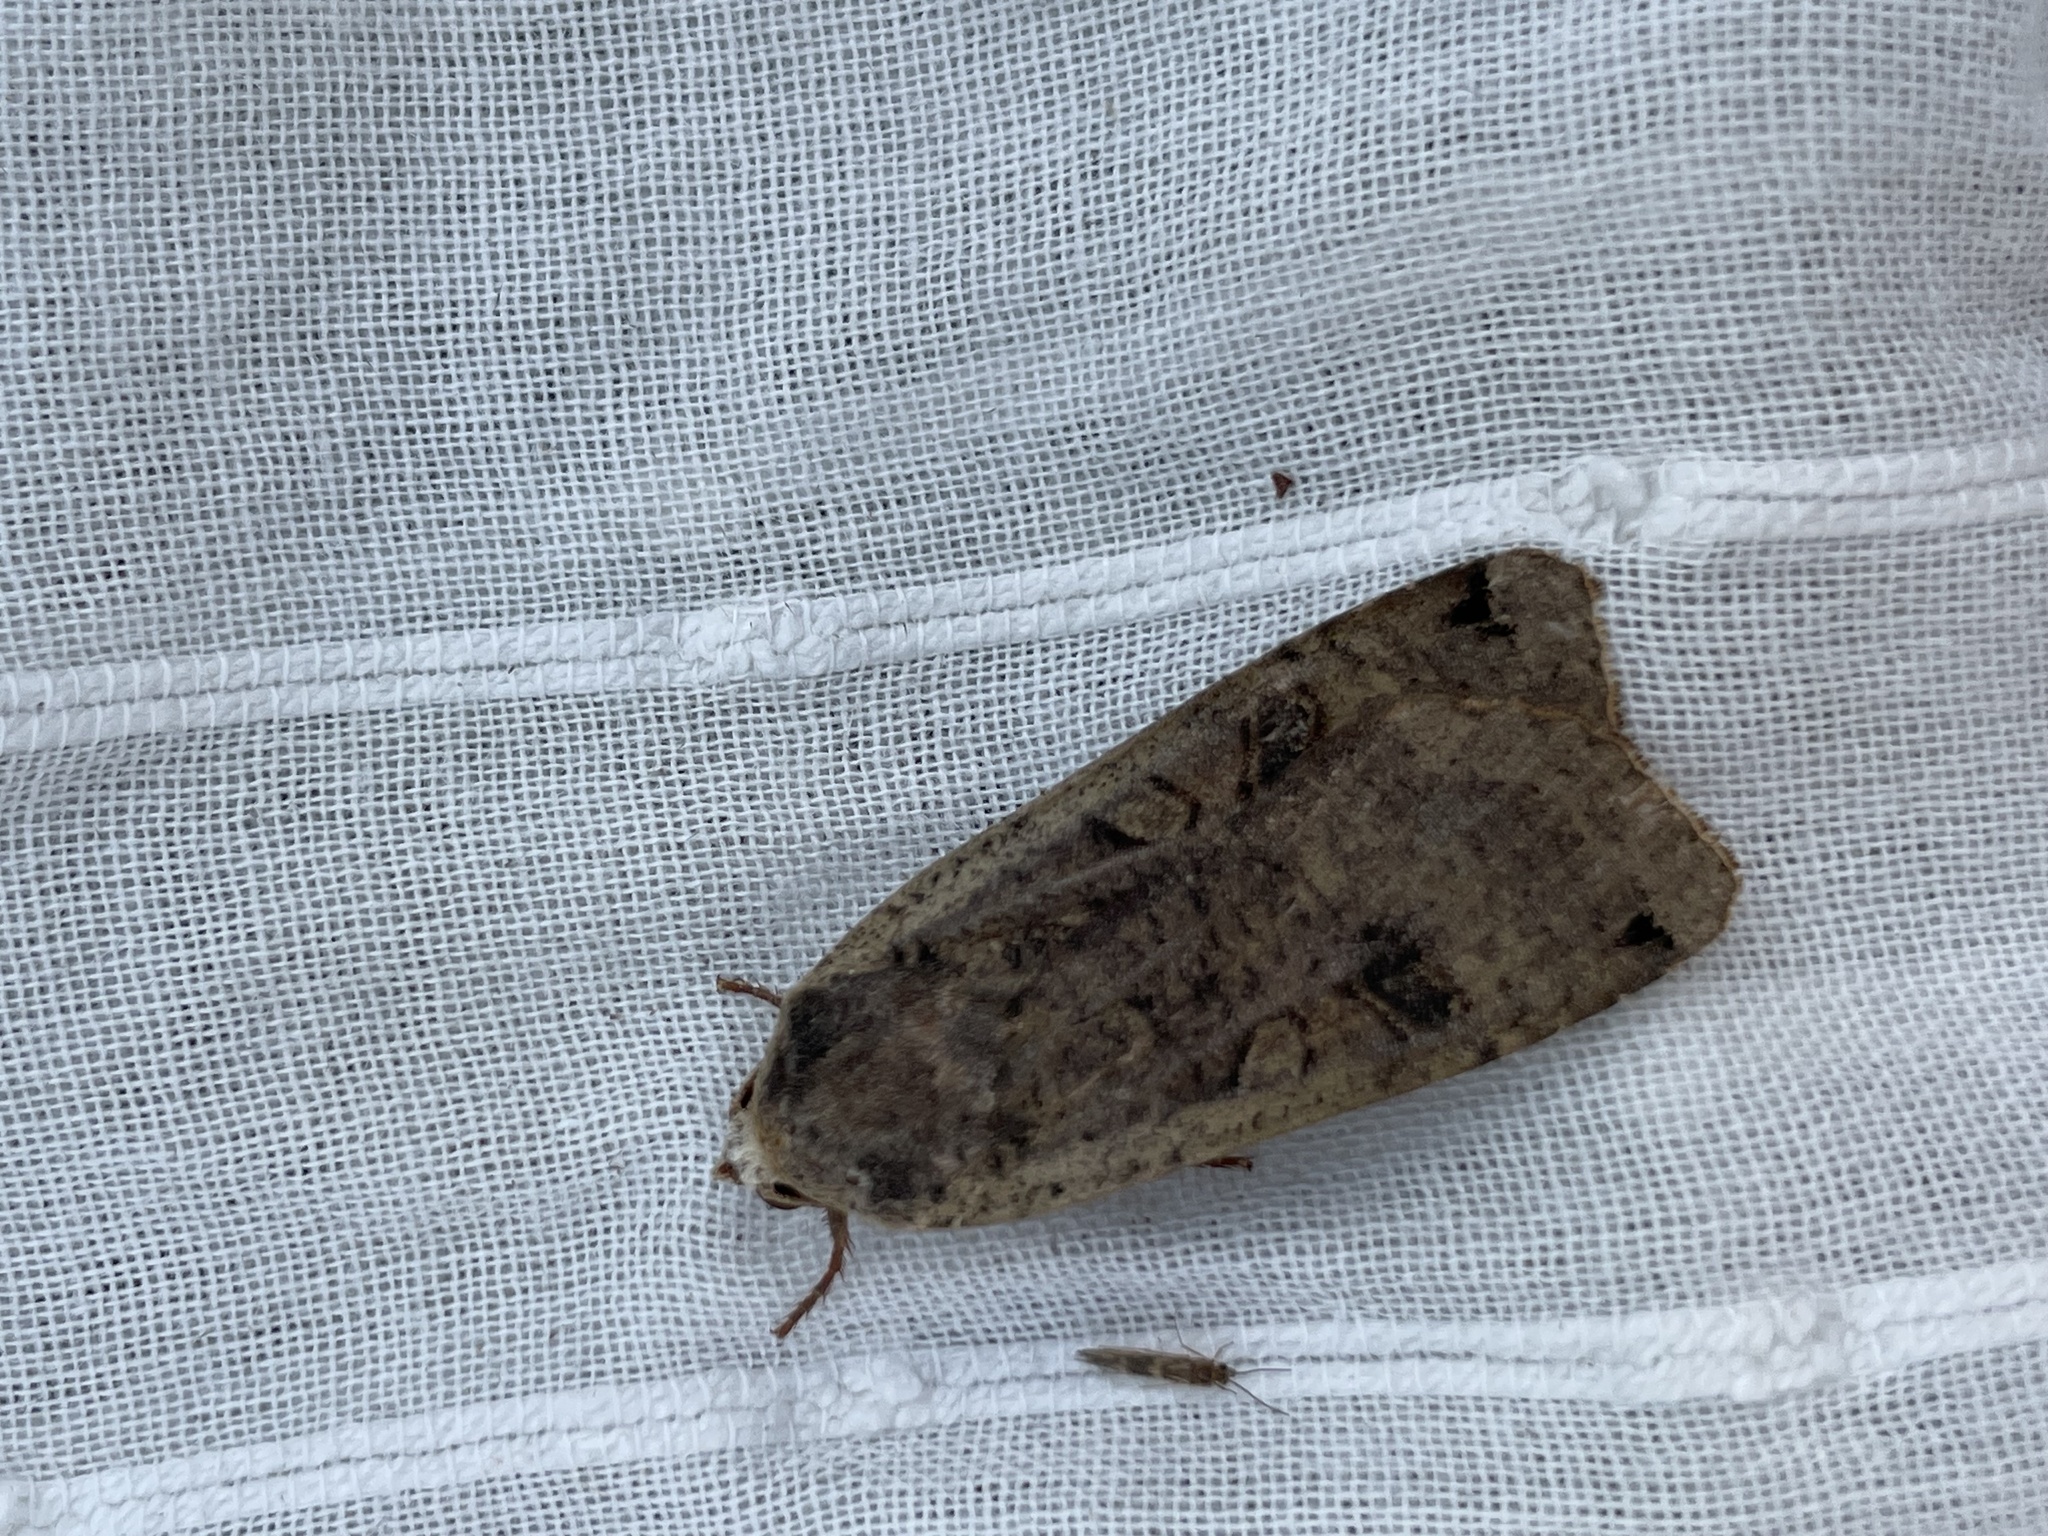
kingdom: Animalia
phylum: Arthropoda
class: Insecta
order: Lepidoptera
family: Noctuidae
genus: Noctua
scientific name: Noctua pronuba
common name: Large yellow underwing
